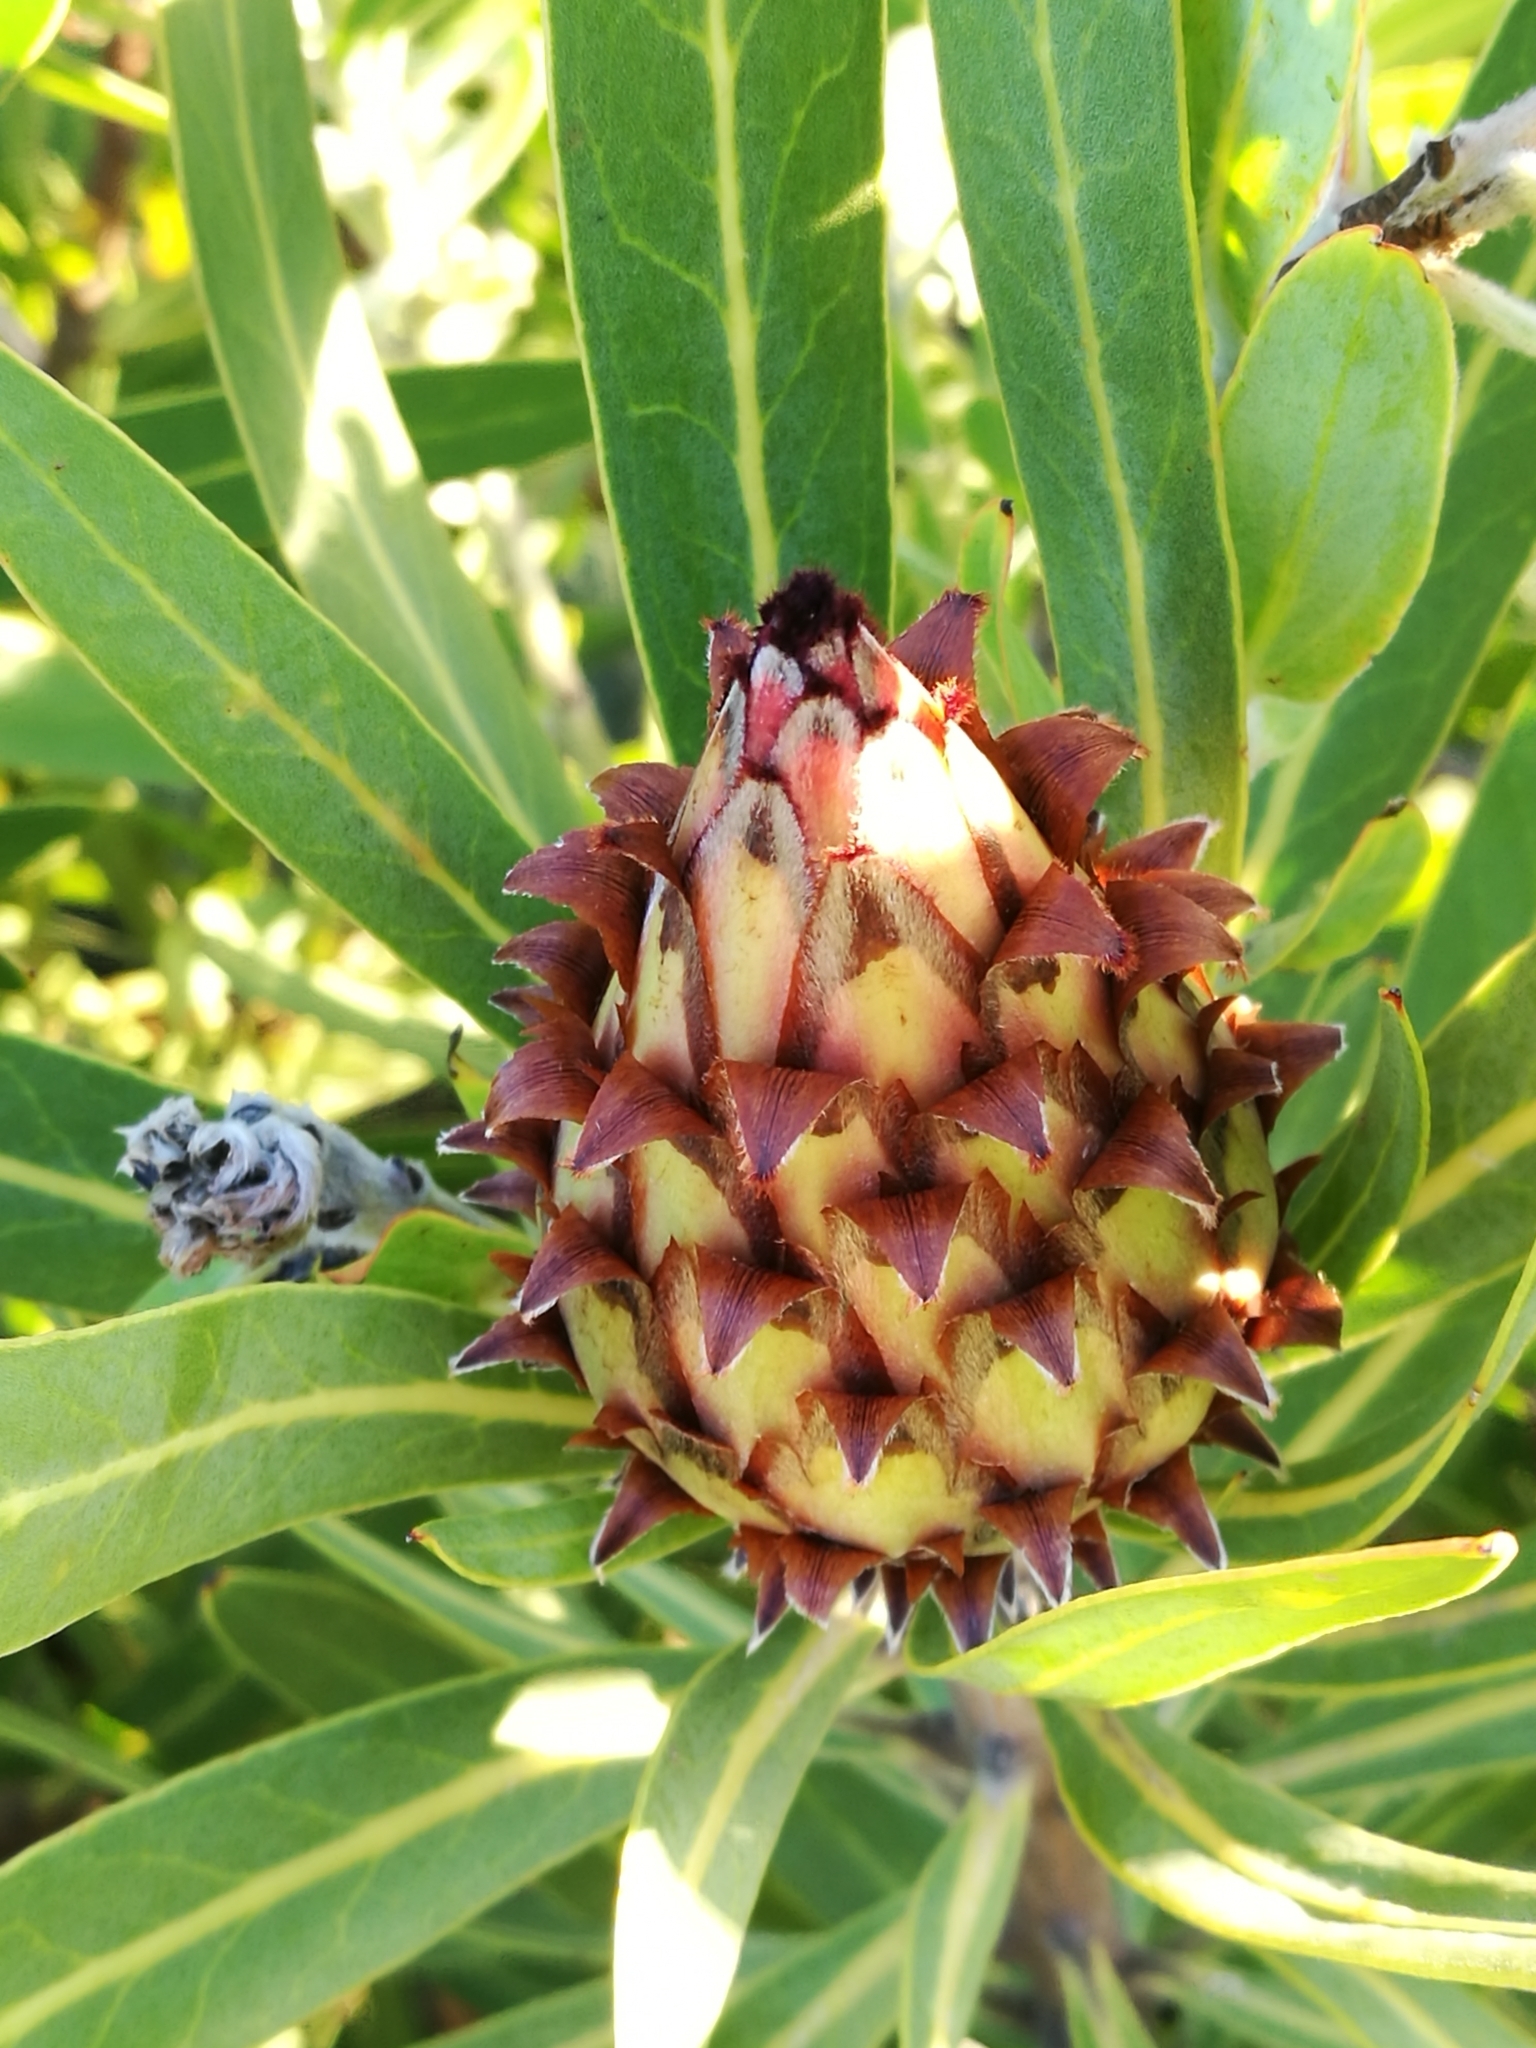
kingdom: Plantae
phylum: Tracheophyta
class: Magnoliopsida
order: Proteales
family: Proteaceae
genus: Protea
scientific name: Protea neriifolia
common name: Blue sugarbush
